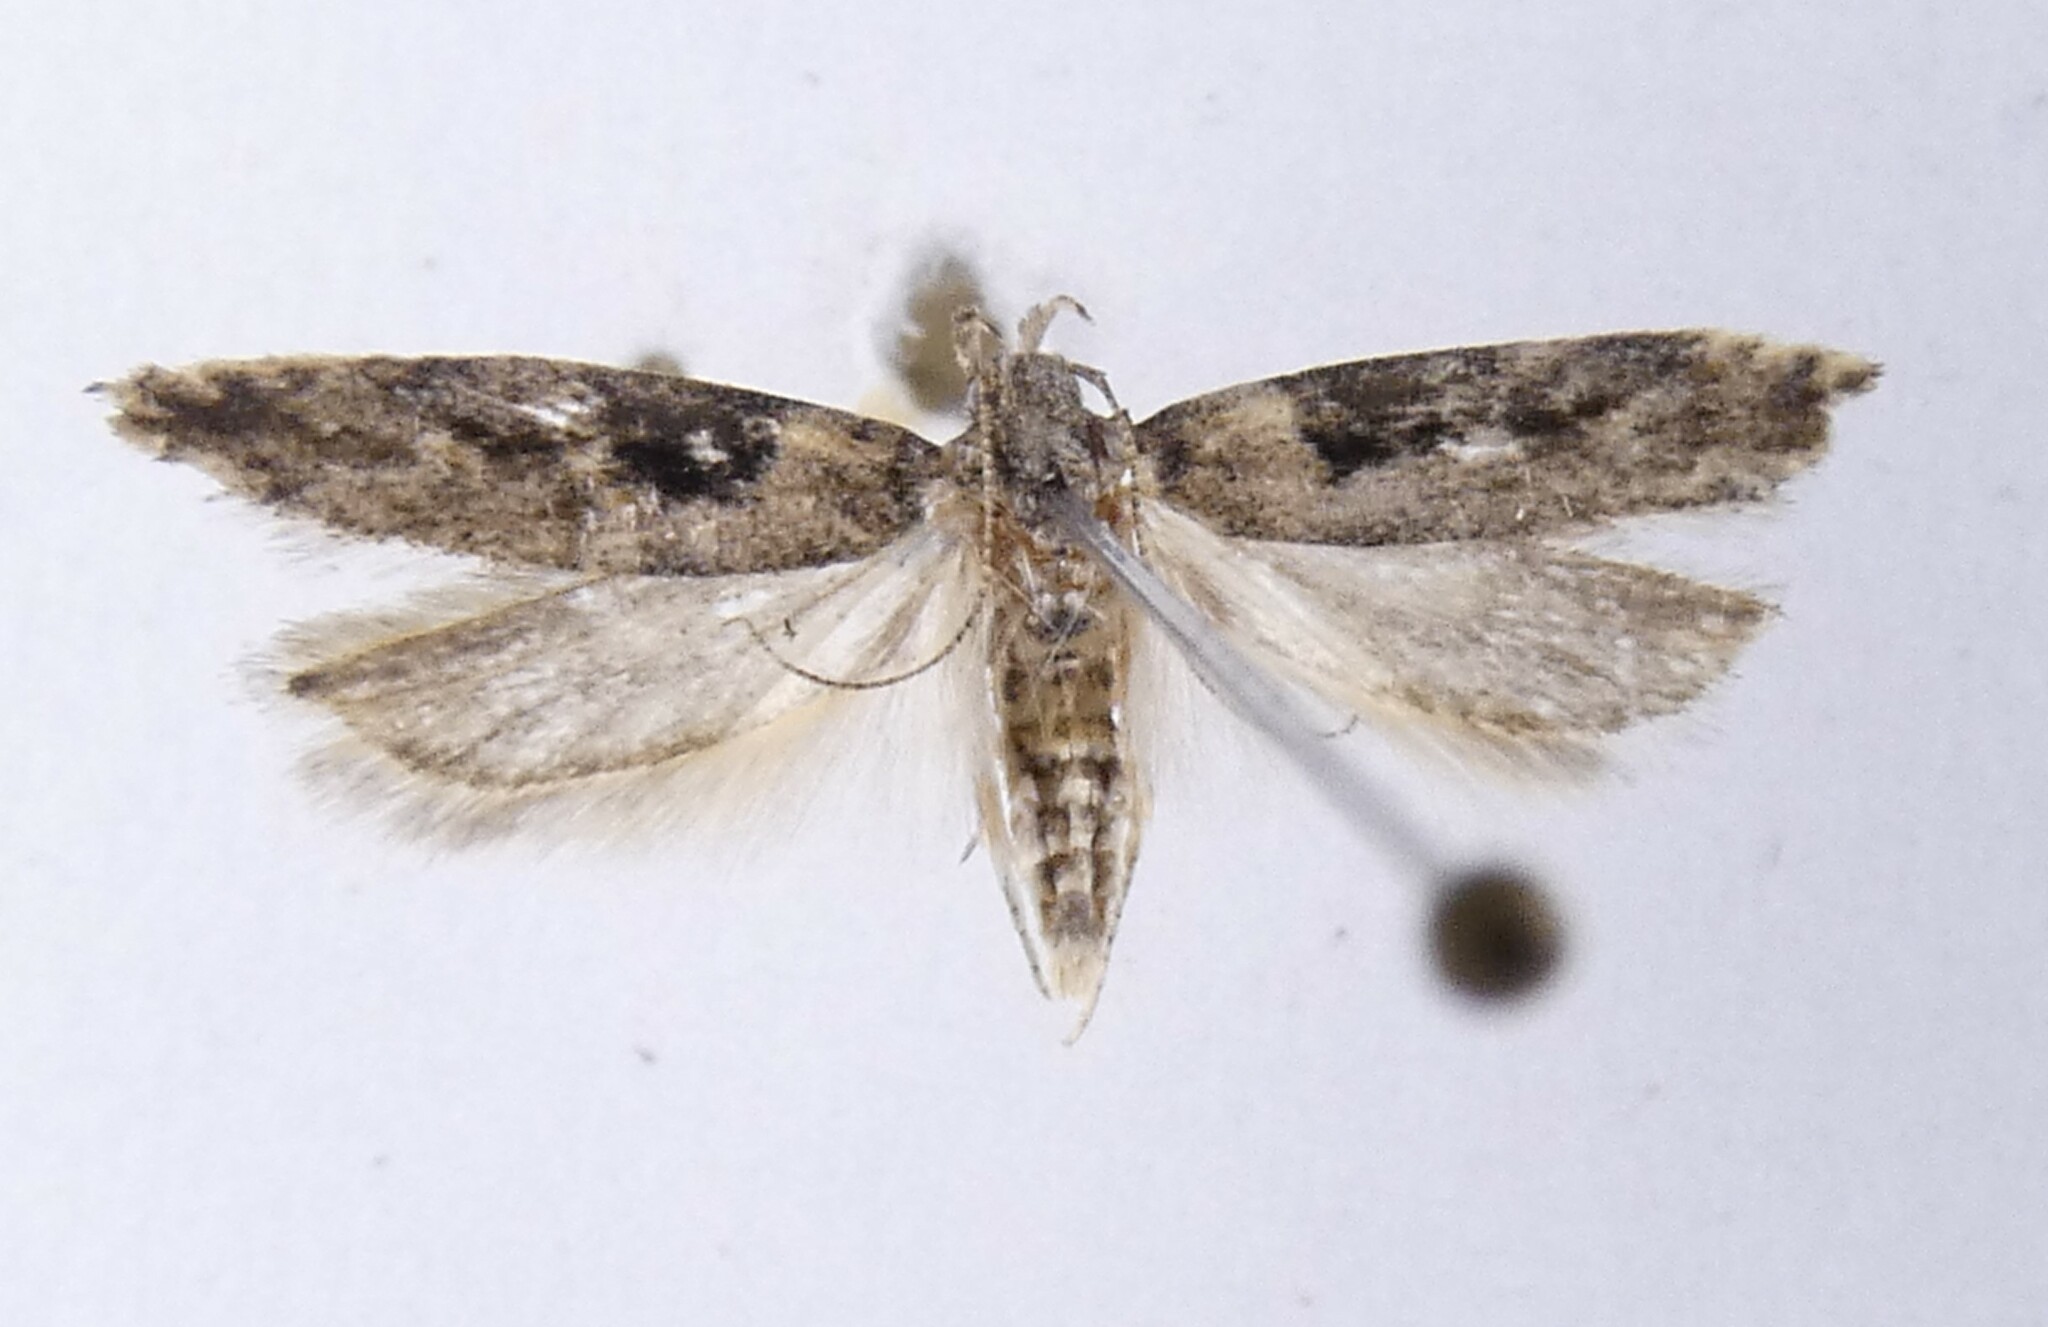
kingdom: Animalia
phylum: Arthropoda
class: Insecta
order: Lepidoptera
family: Gelechiidae
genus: Symmetrischema
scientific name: Symmetrischema tangolias
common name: Moth
